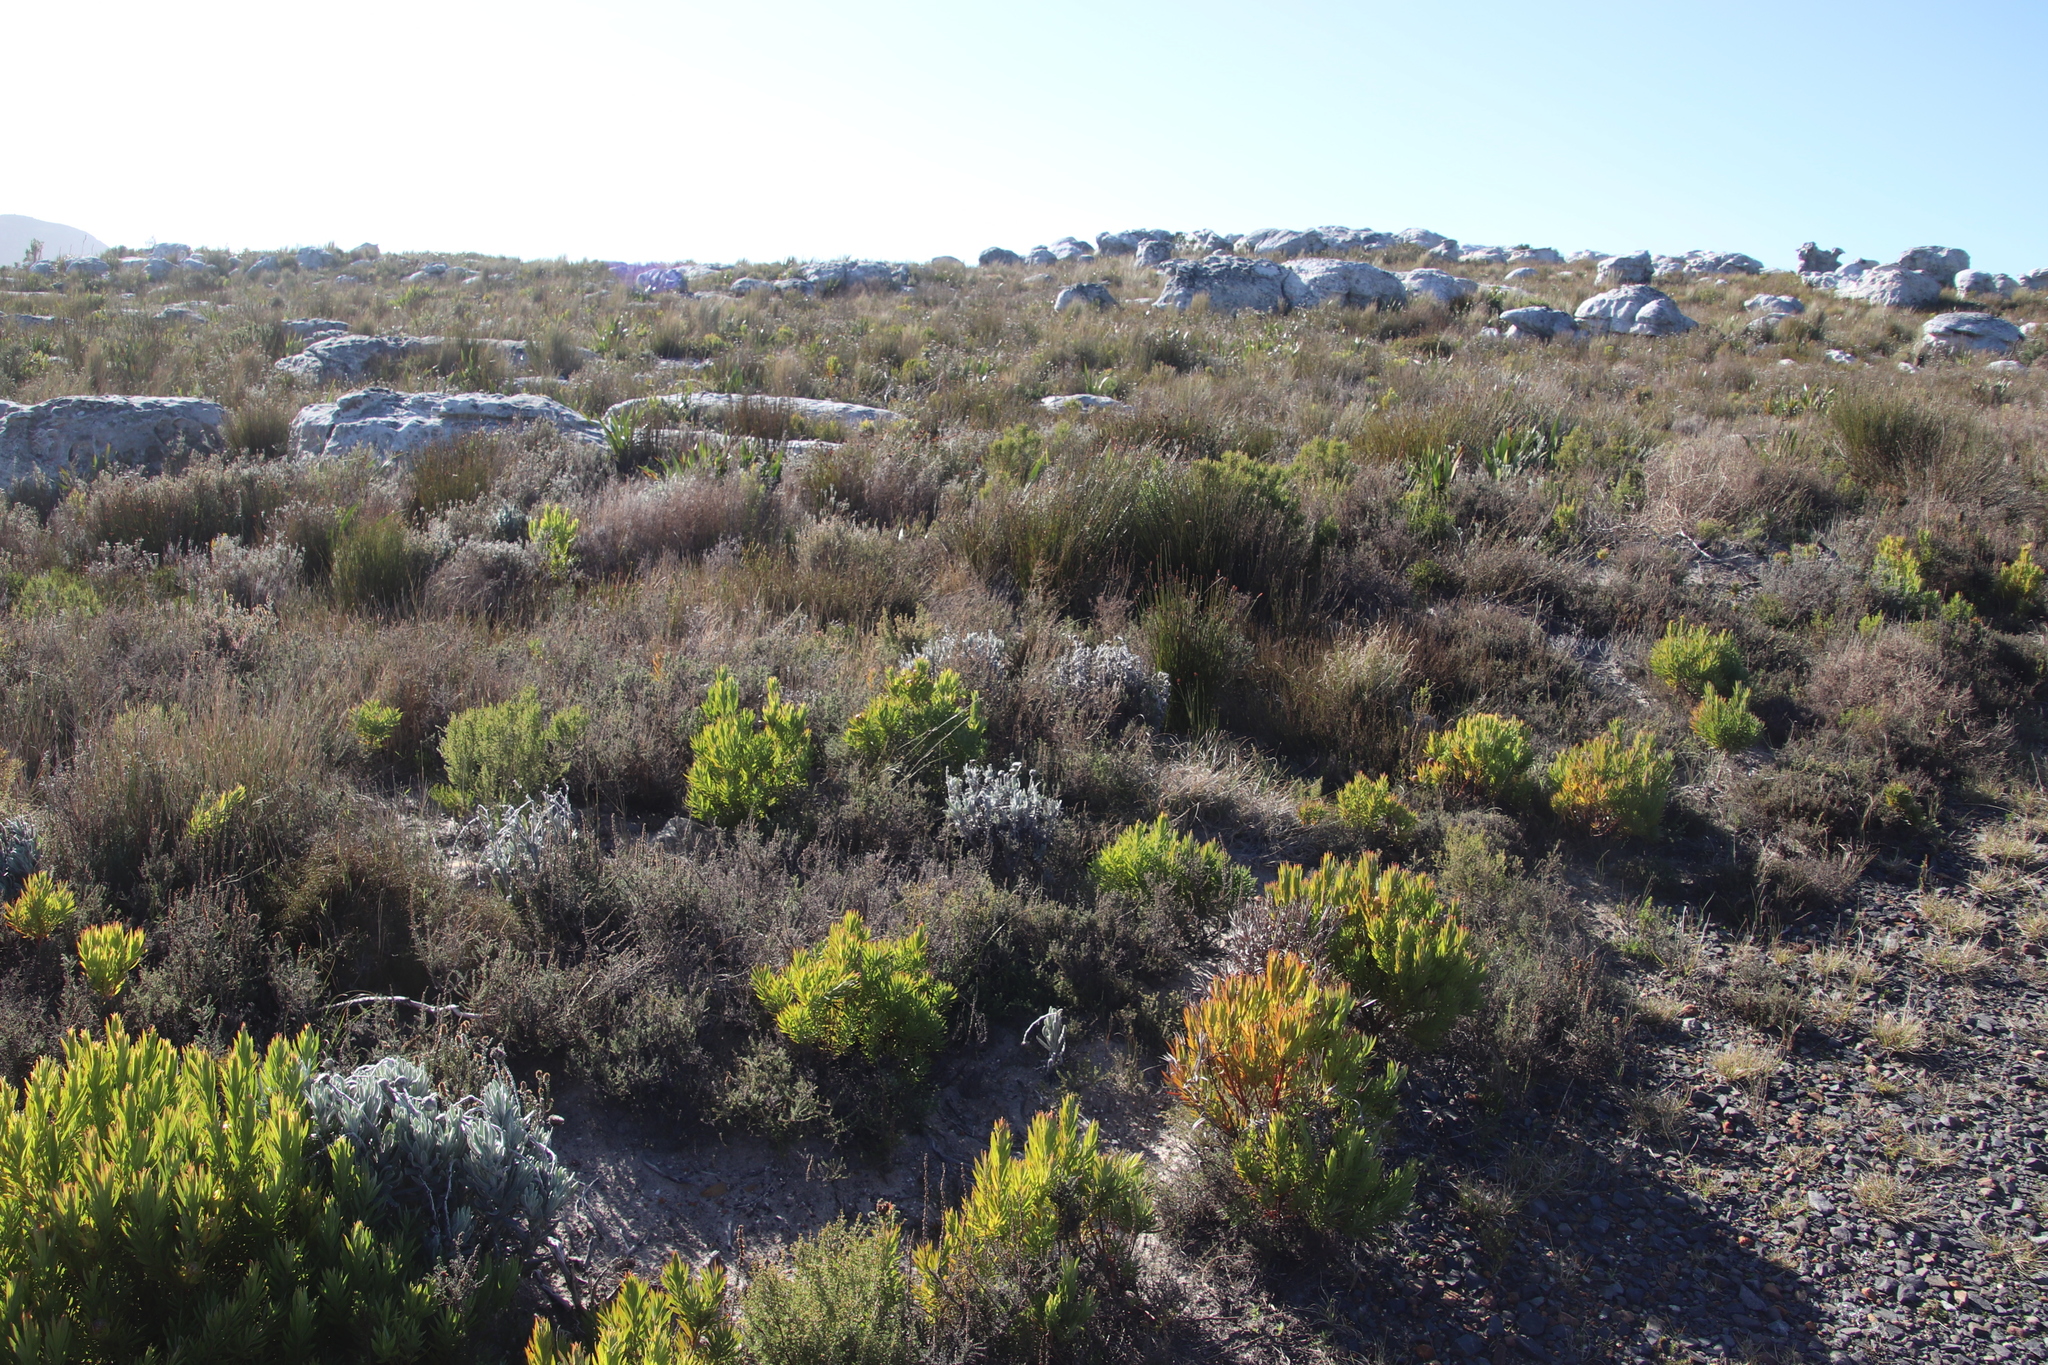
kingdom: Plantae
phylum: Tracheophyta
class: Magnoliopsida
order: Proteales
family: Proteaceae
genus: Leucadendron
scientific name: Leucadendron xanthoconus
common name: Sickle-leaf conebush
